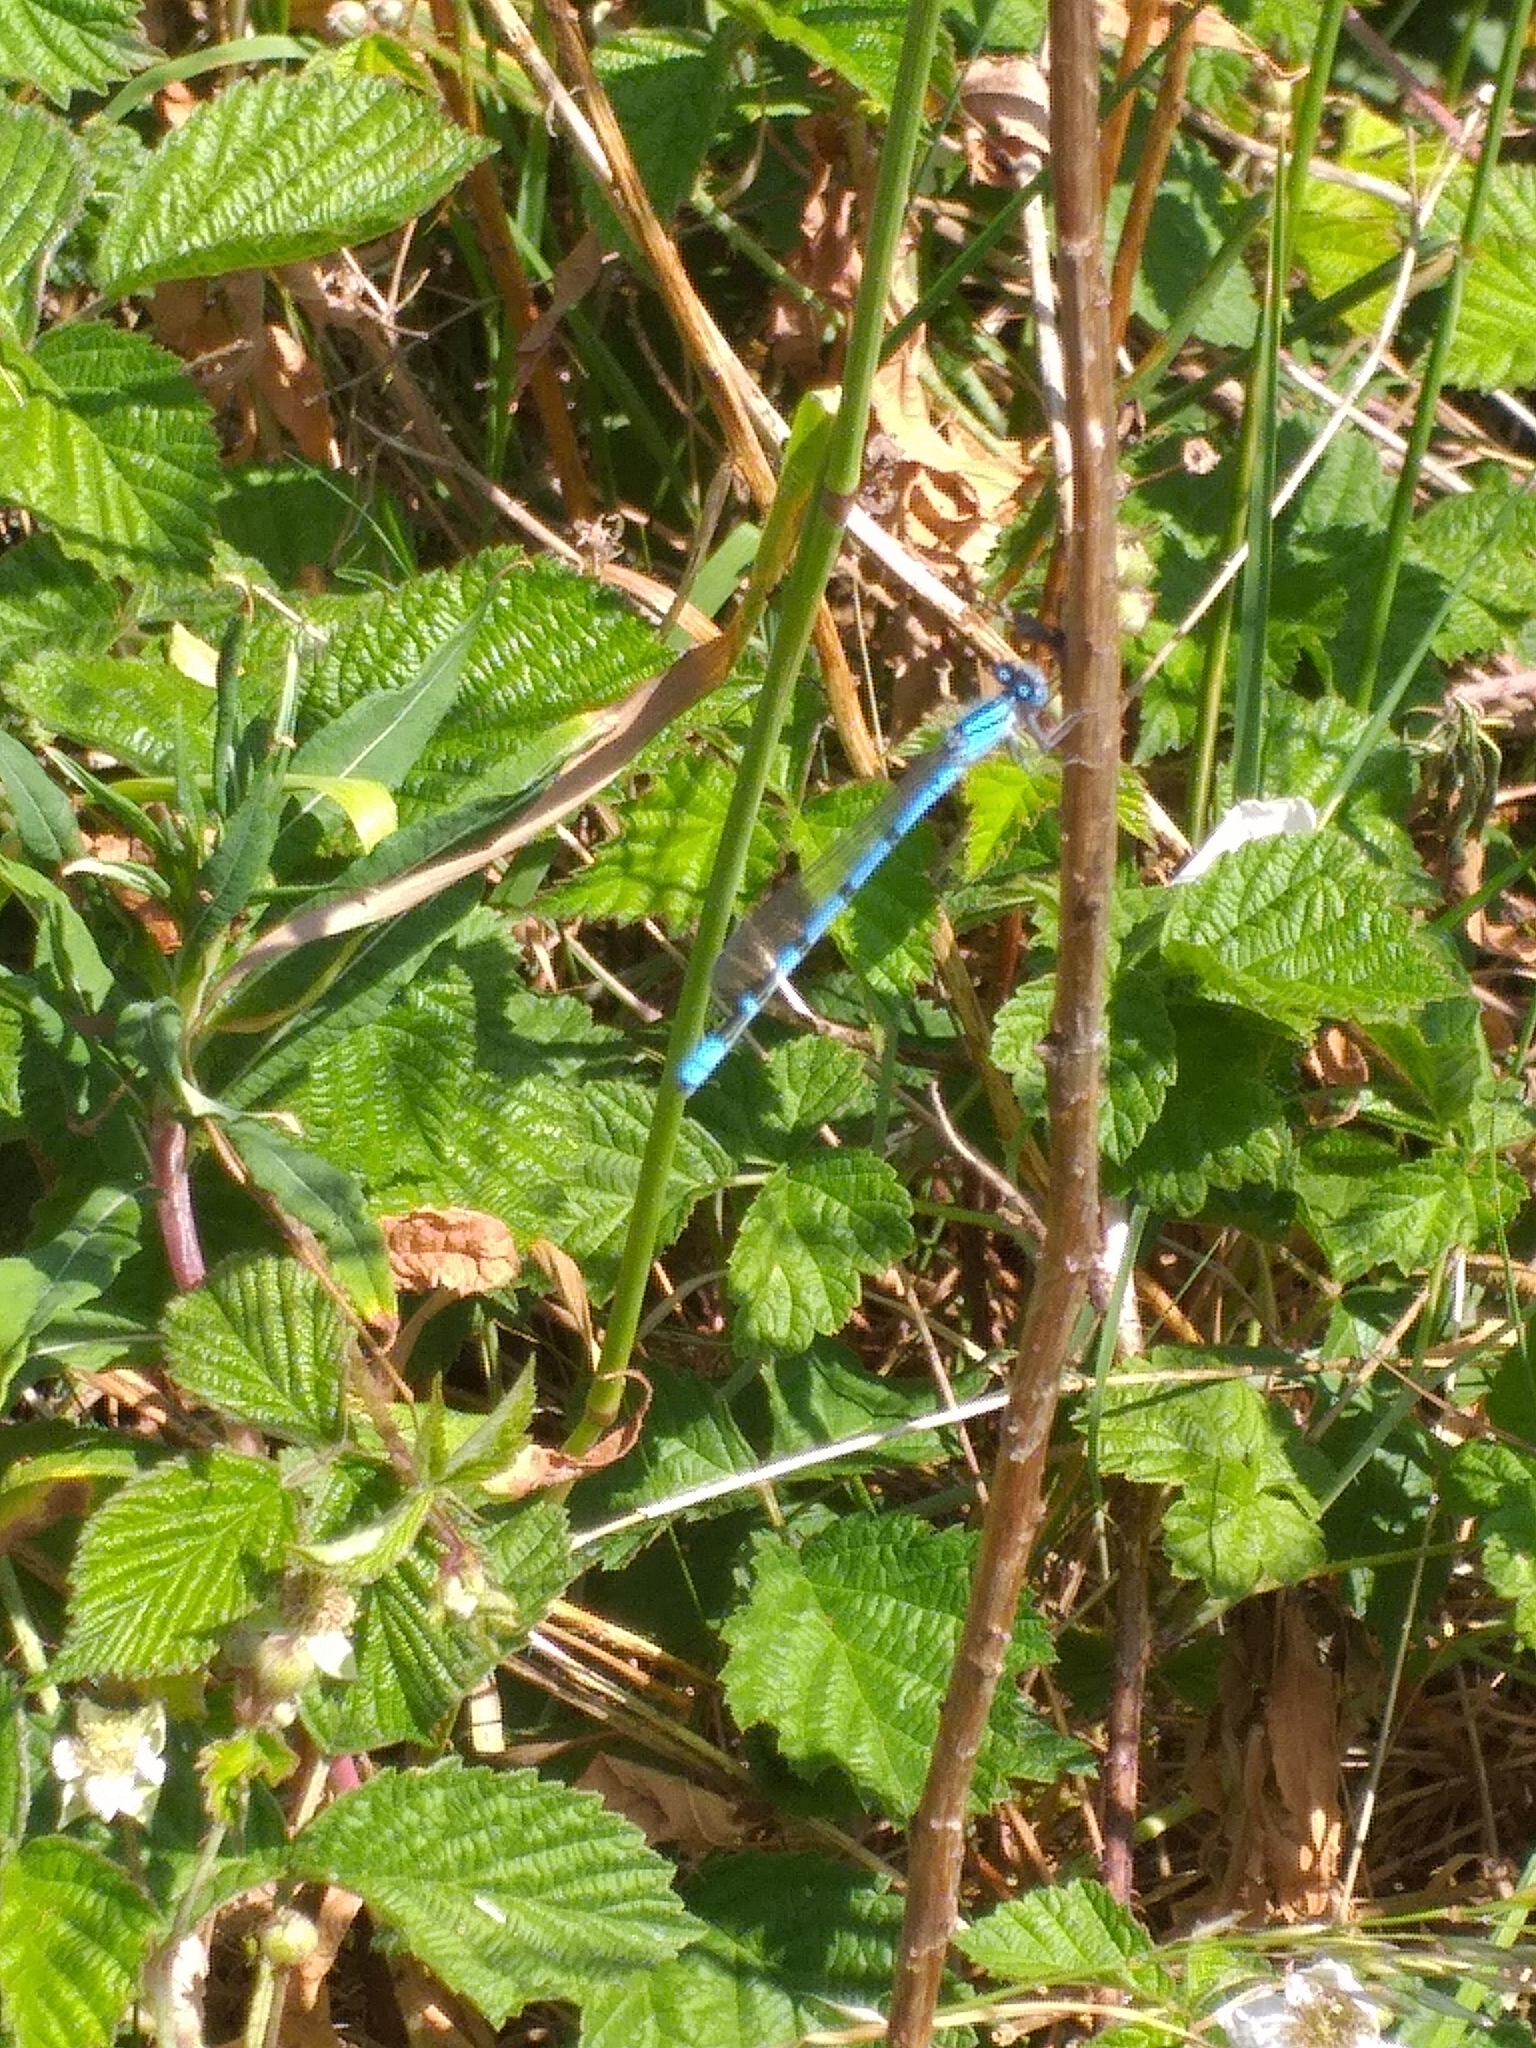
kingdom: Animalia
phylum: Arthropoda
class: Insecta
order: Odonata
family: Coenagrionidae
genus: Enallagma
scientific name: Enallagma cyathigerum
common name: Common blue damselfly
